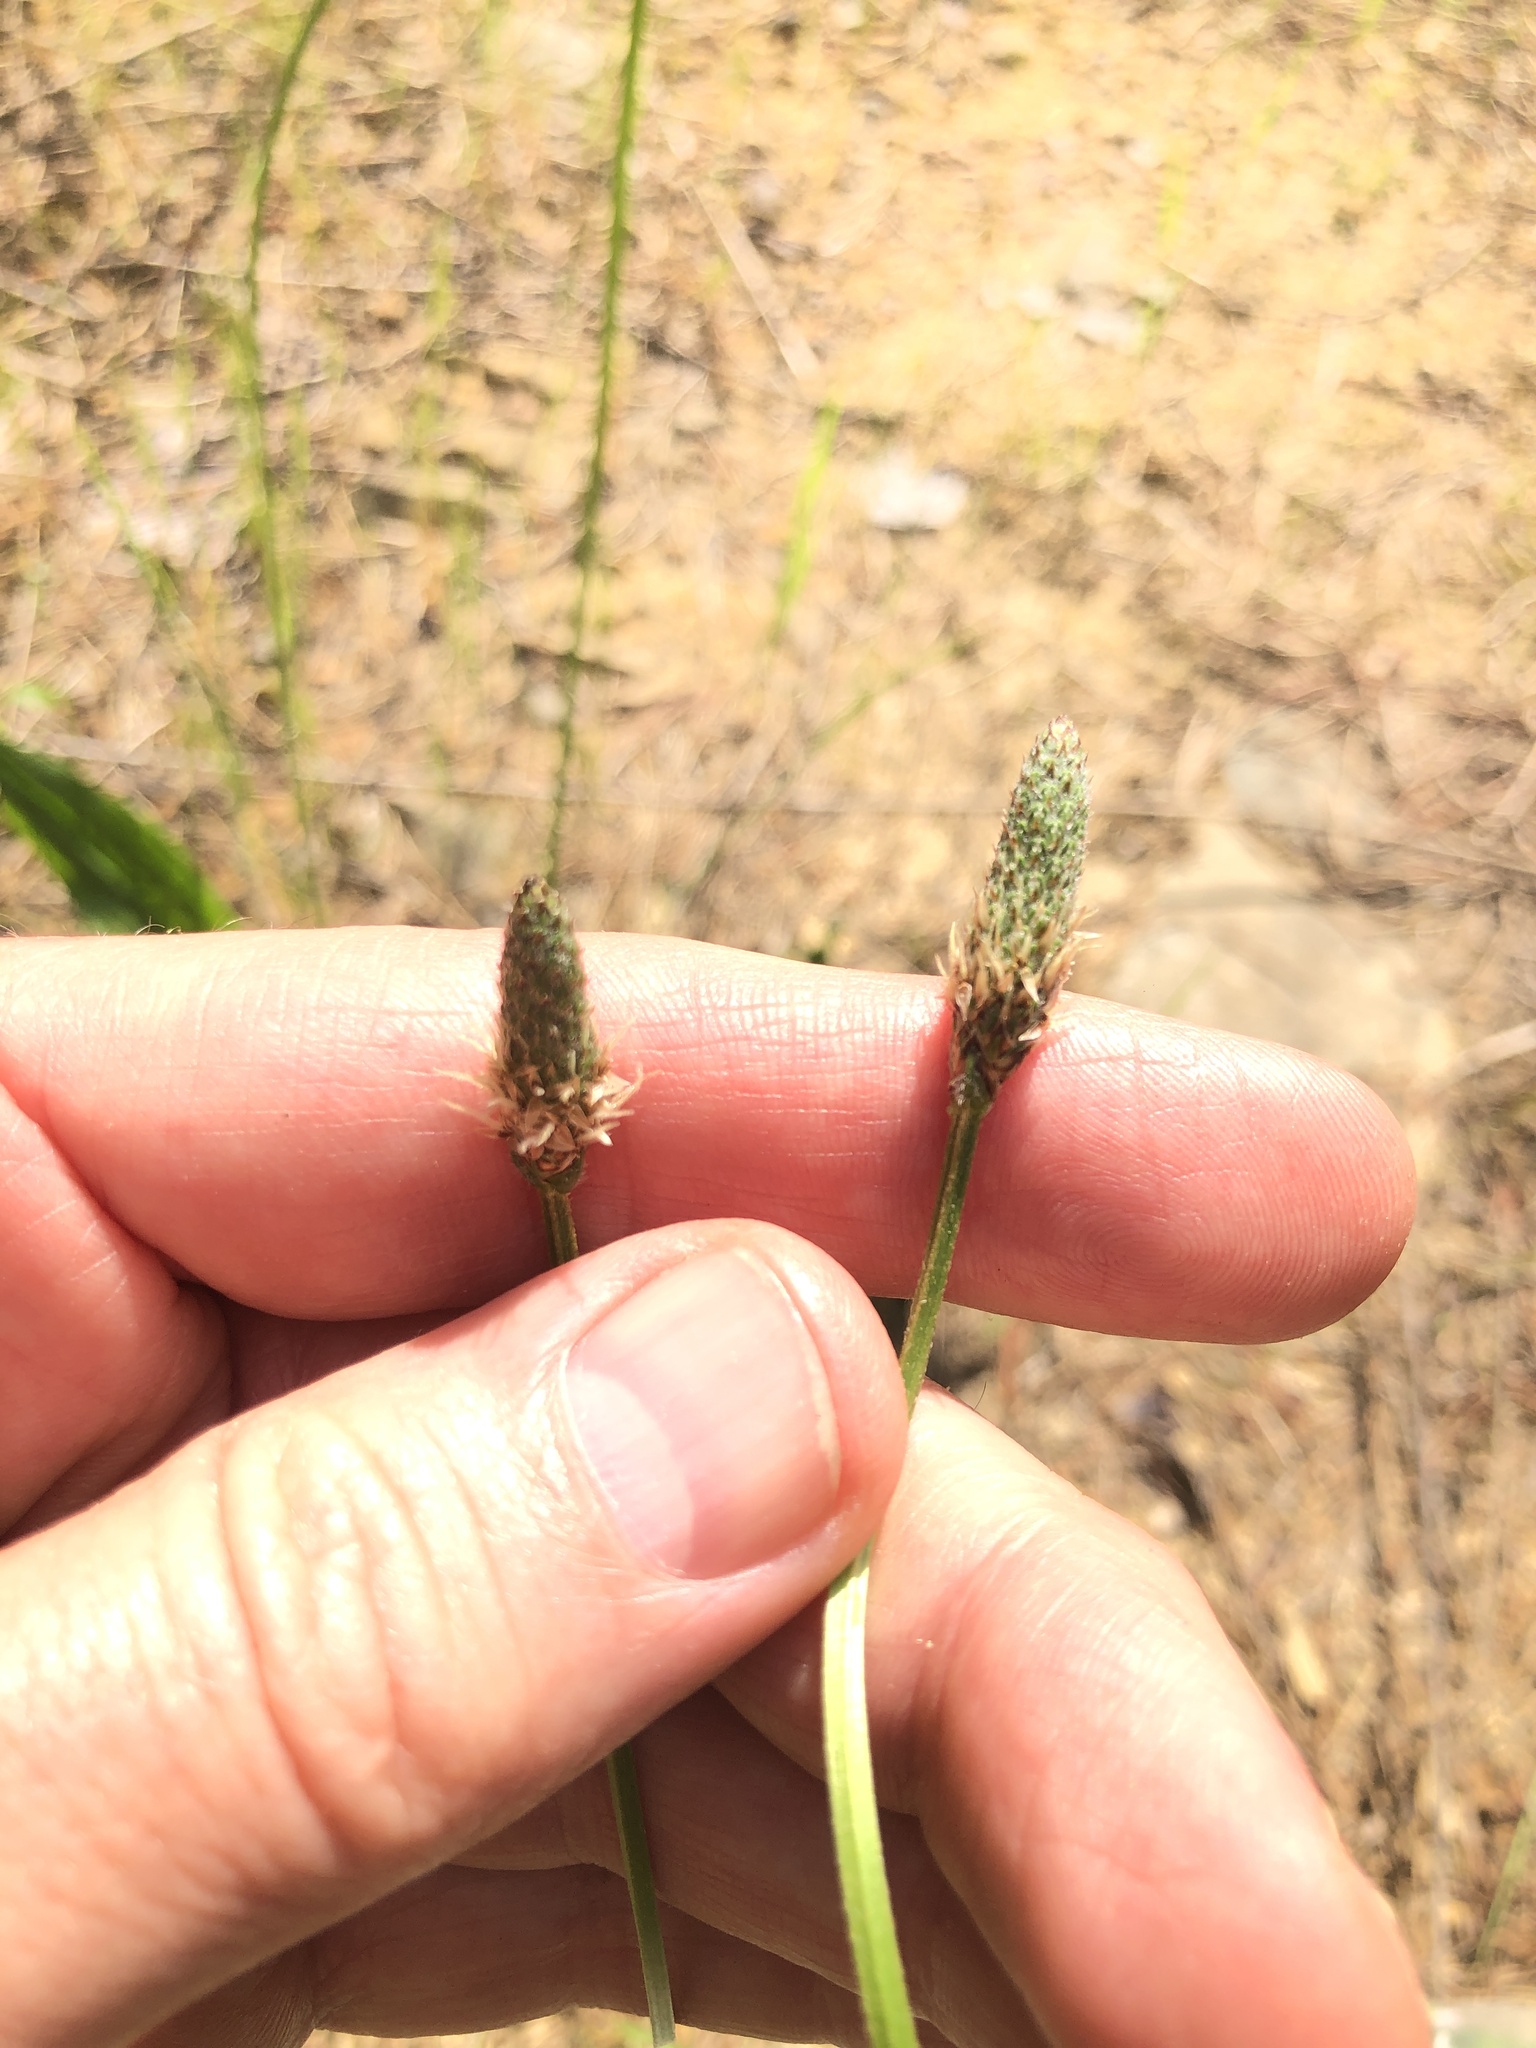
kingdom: Plantae
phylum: Tracheophyta
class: Magnoliopsida
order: Lamiales
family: Plantaginaceae
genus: Plantago
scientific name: Plantago lanceolata
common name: Ribwort plantain
